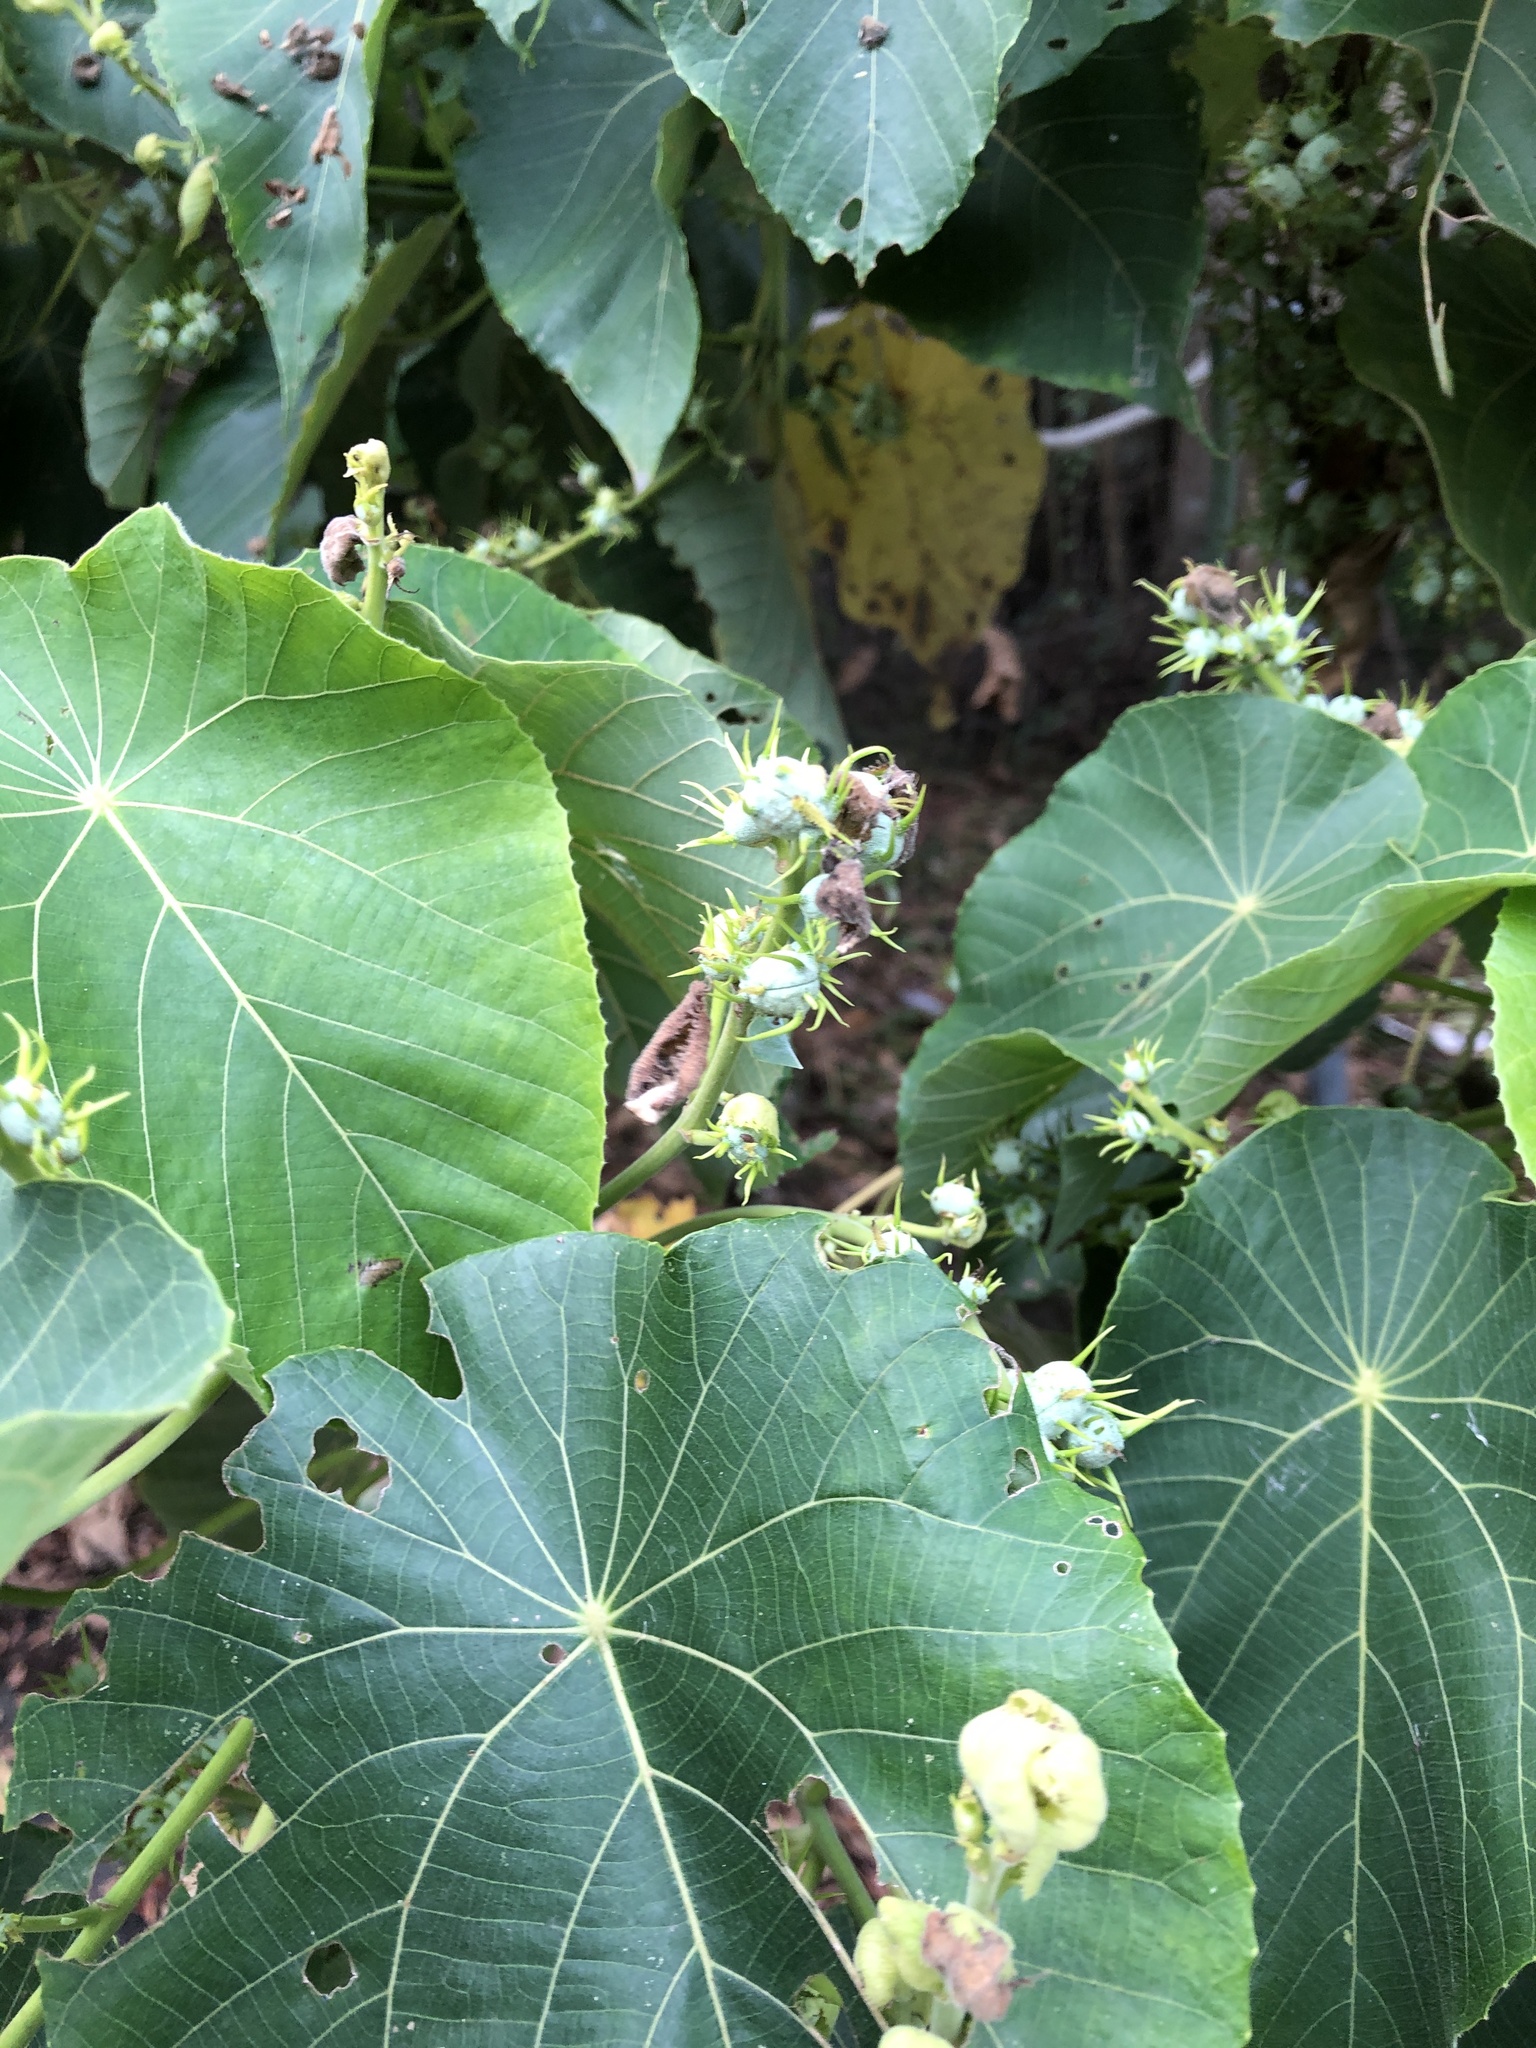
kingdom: Plantae
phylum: Tracheophyta
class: Magnoliopsida
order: Malpighiales
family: Euphorbiaceae
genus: Macaranga
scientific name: Macaranga tanarius
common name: Parasol leaf tree
